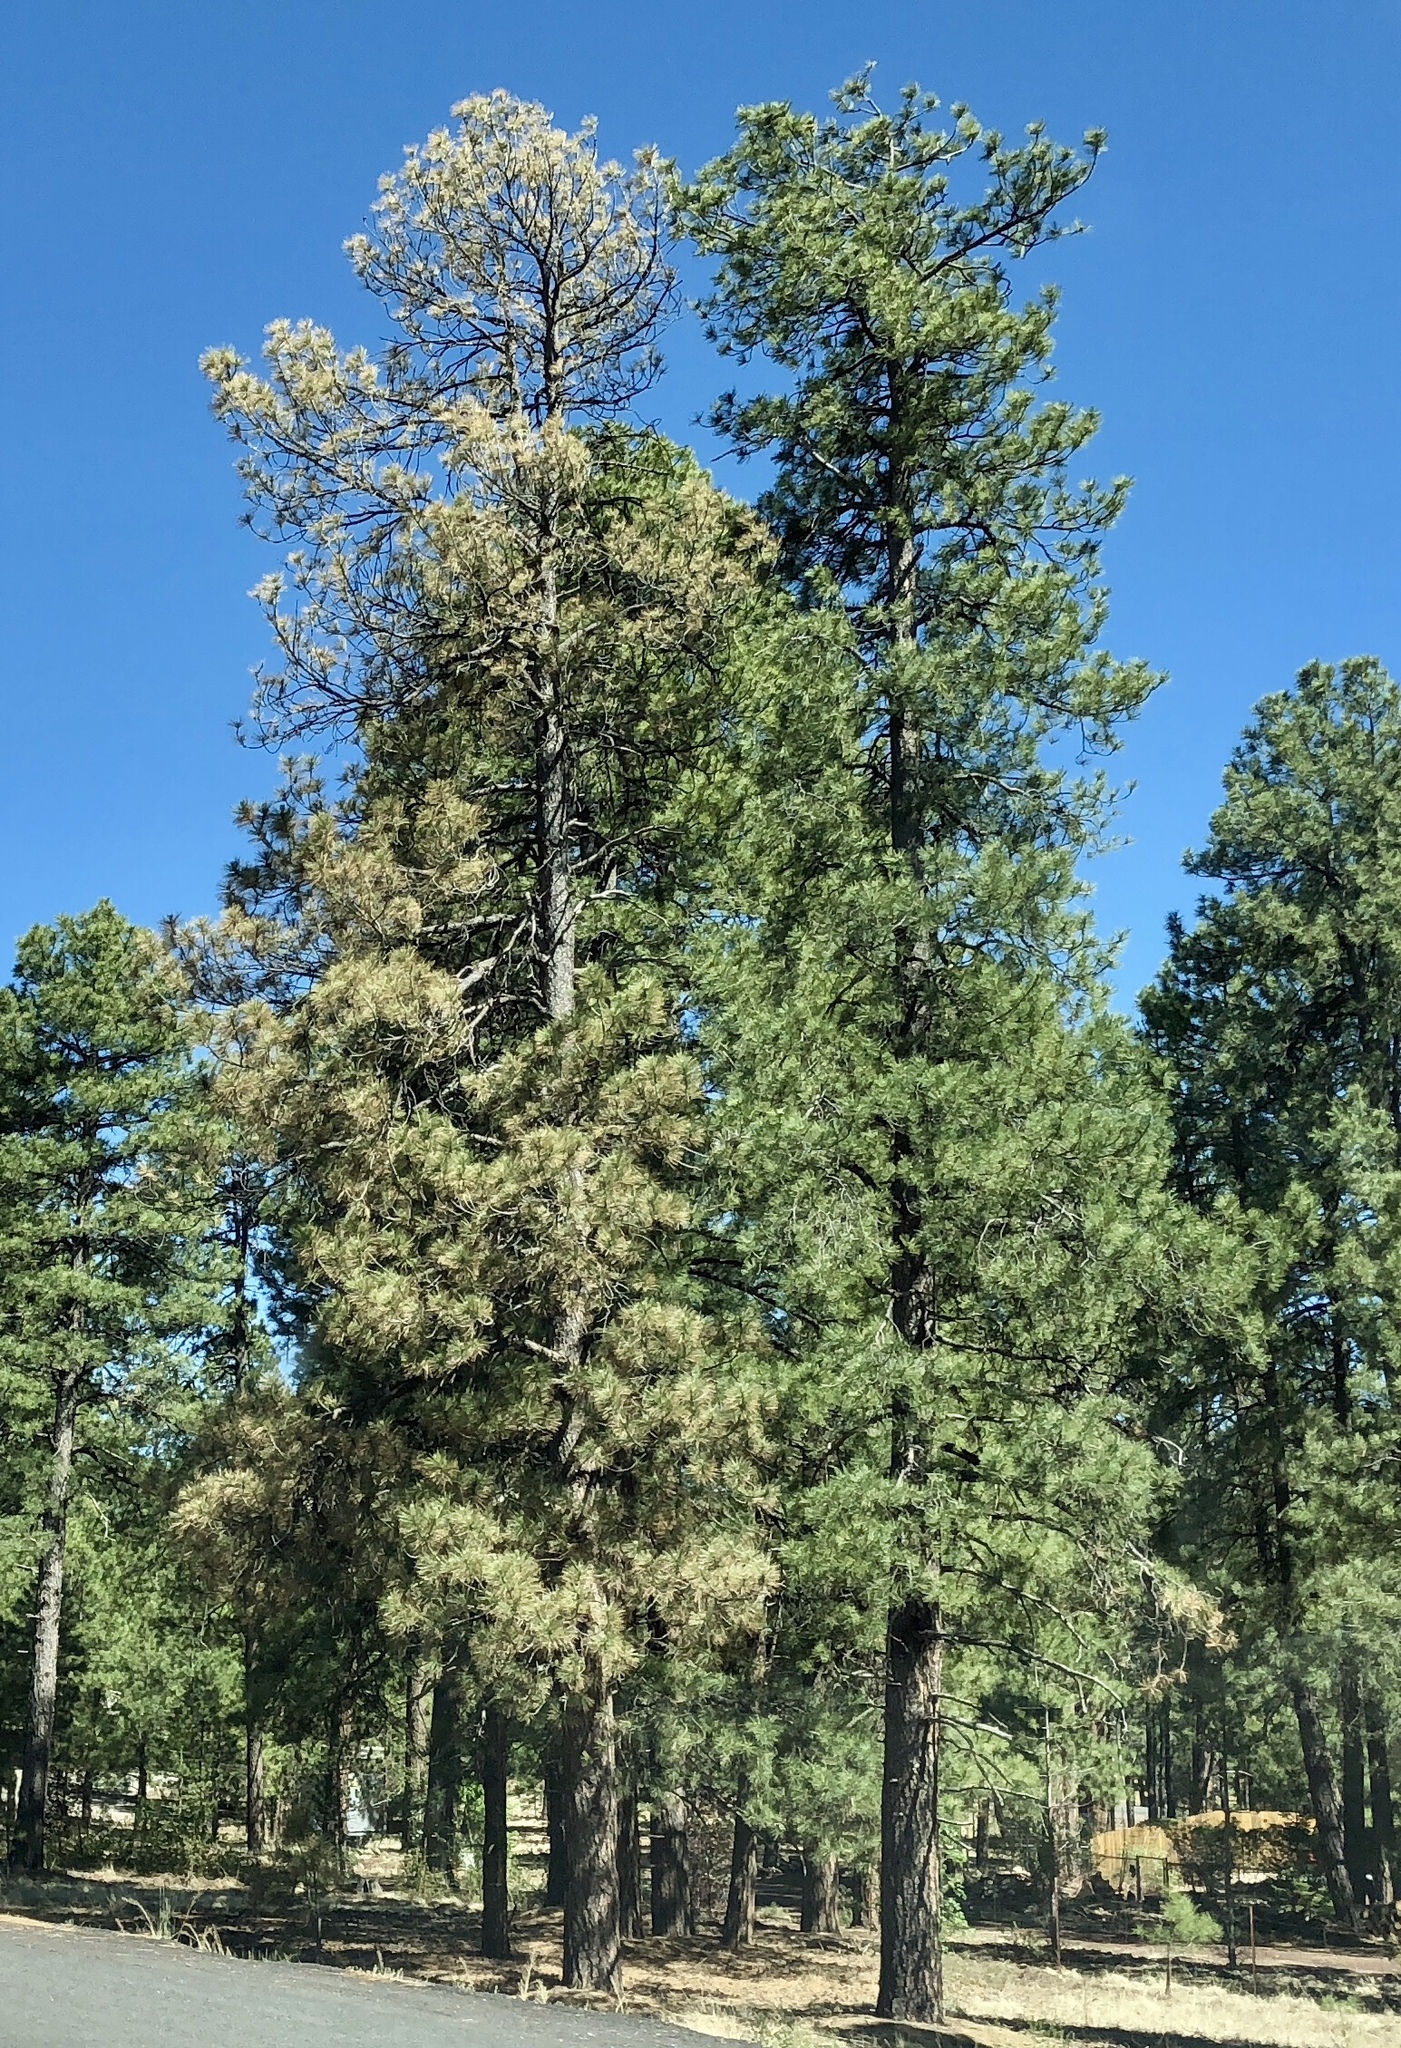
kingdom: Plantae
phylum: Tracheophyta
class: Pinopsida
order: Pinales
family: Pinaceae
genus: Pinus
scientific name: Pinus ponderosa
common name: Western yellow-pine
